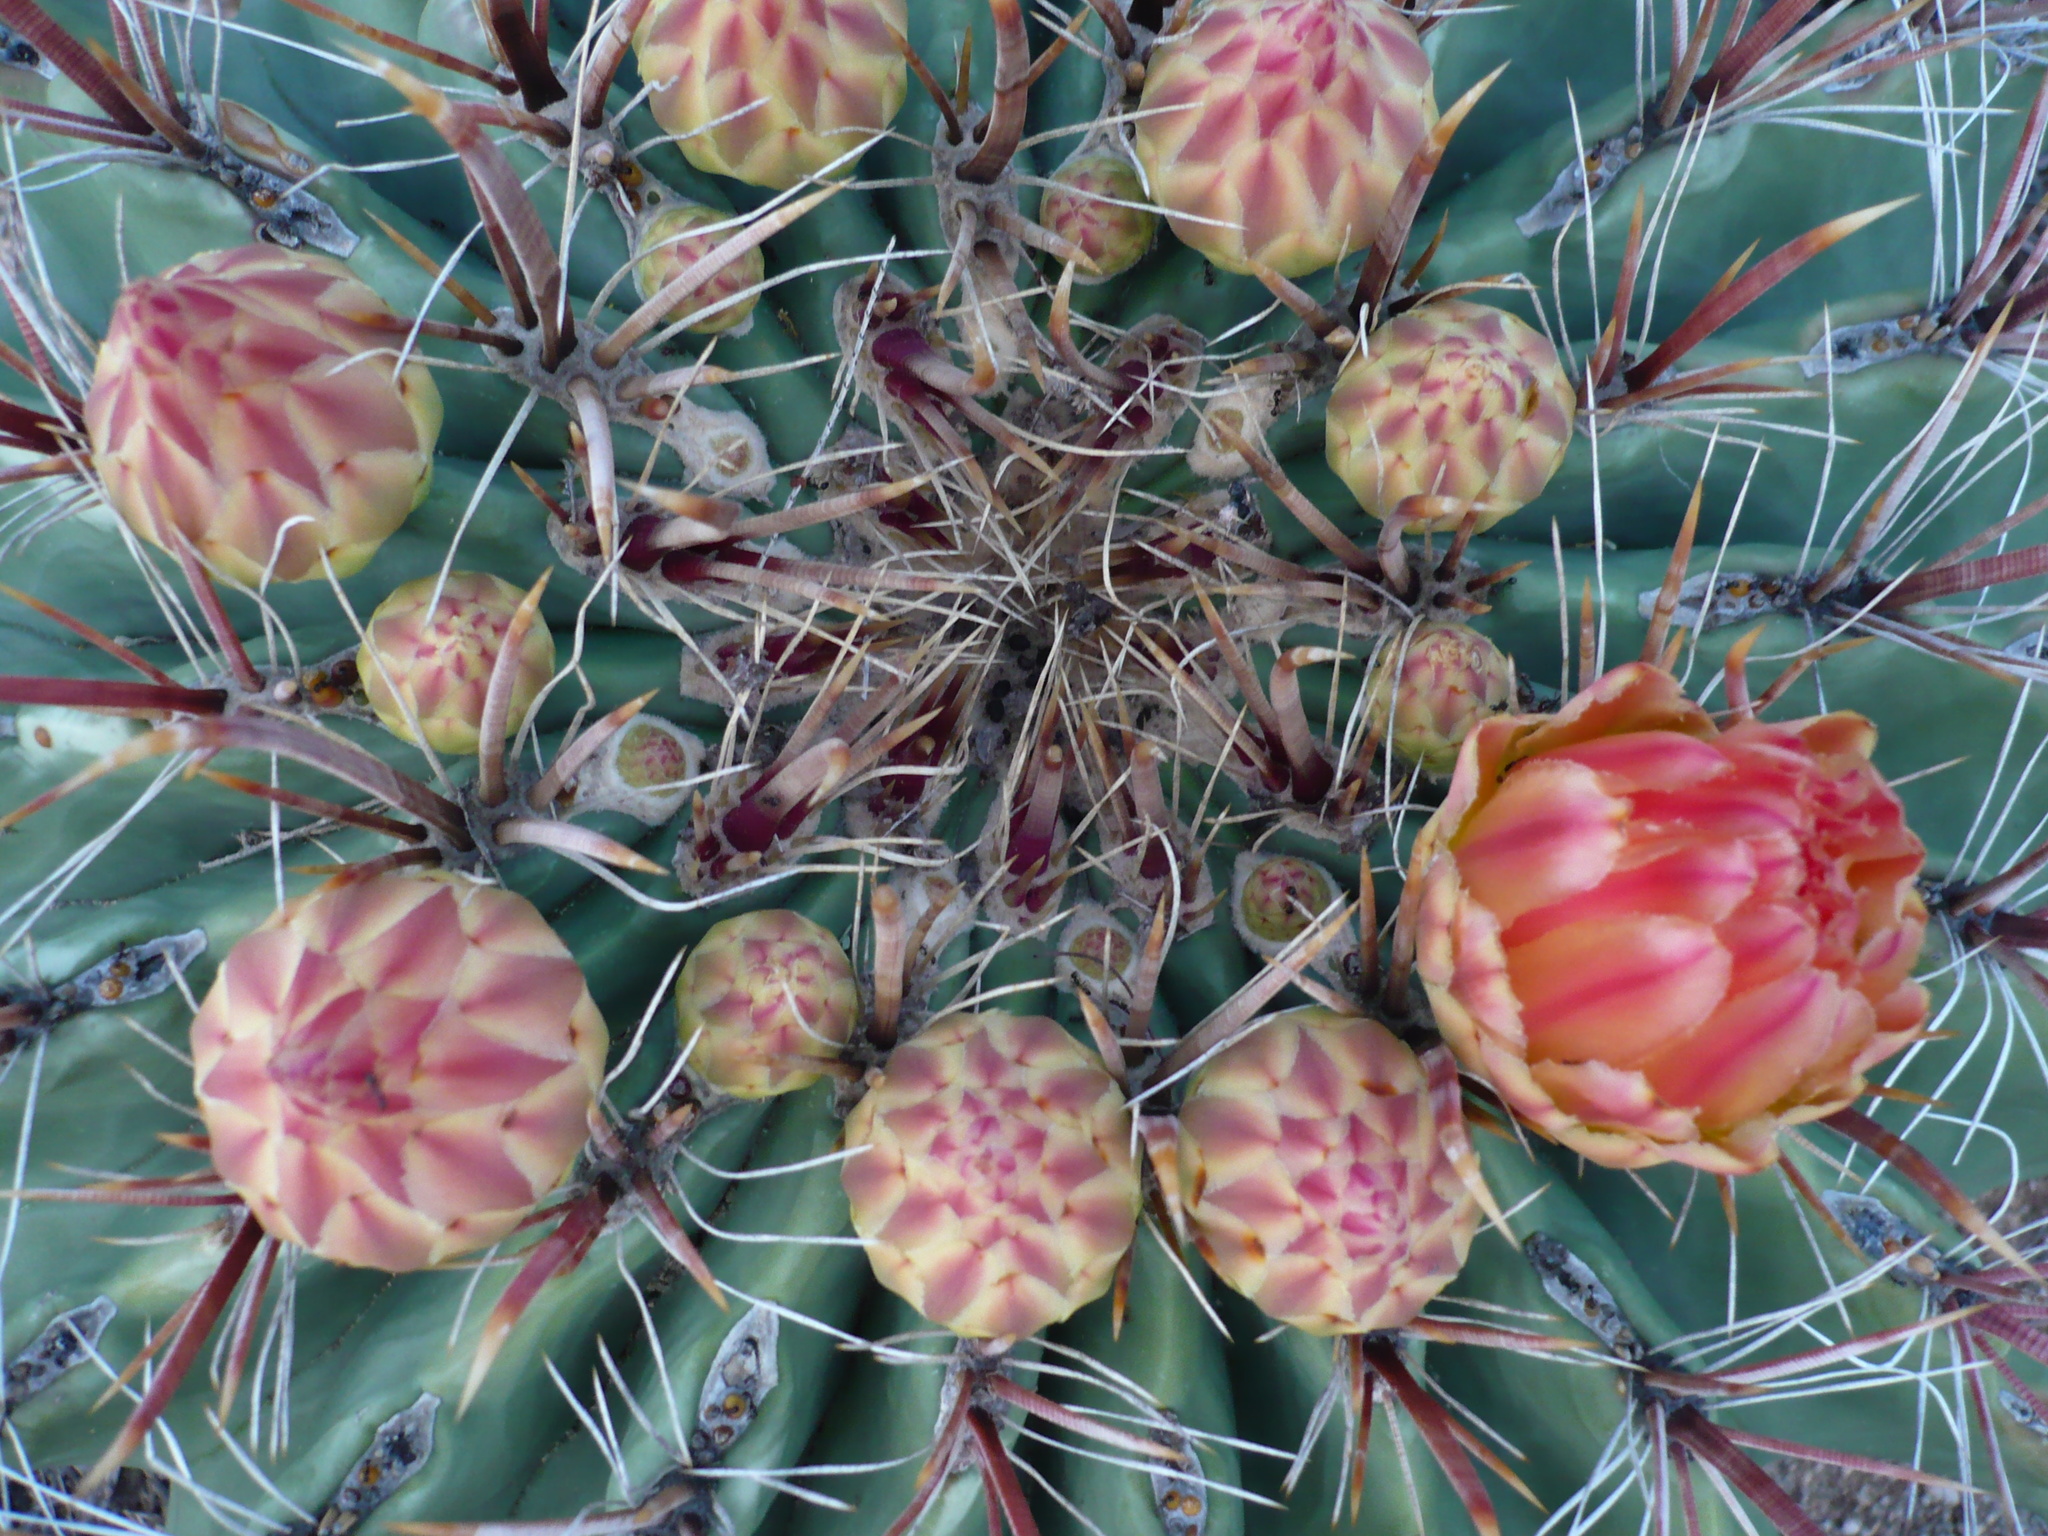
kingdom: Plantae
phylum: Tracheophyta
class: Magnoliopsida
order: Caryophyllales
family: Cactaceae
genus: Ferocactus
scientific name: Ferocactus wislizeni
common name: Candy barrel cactus
